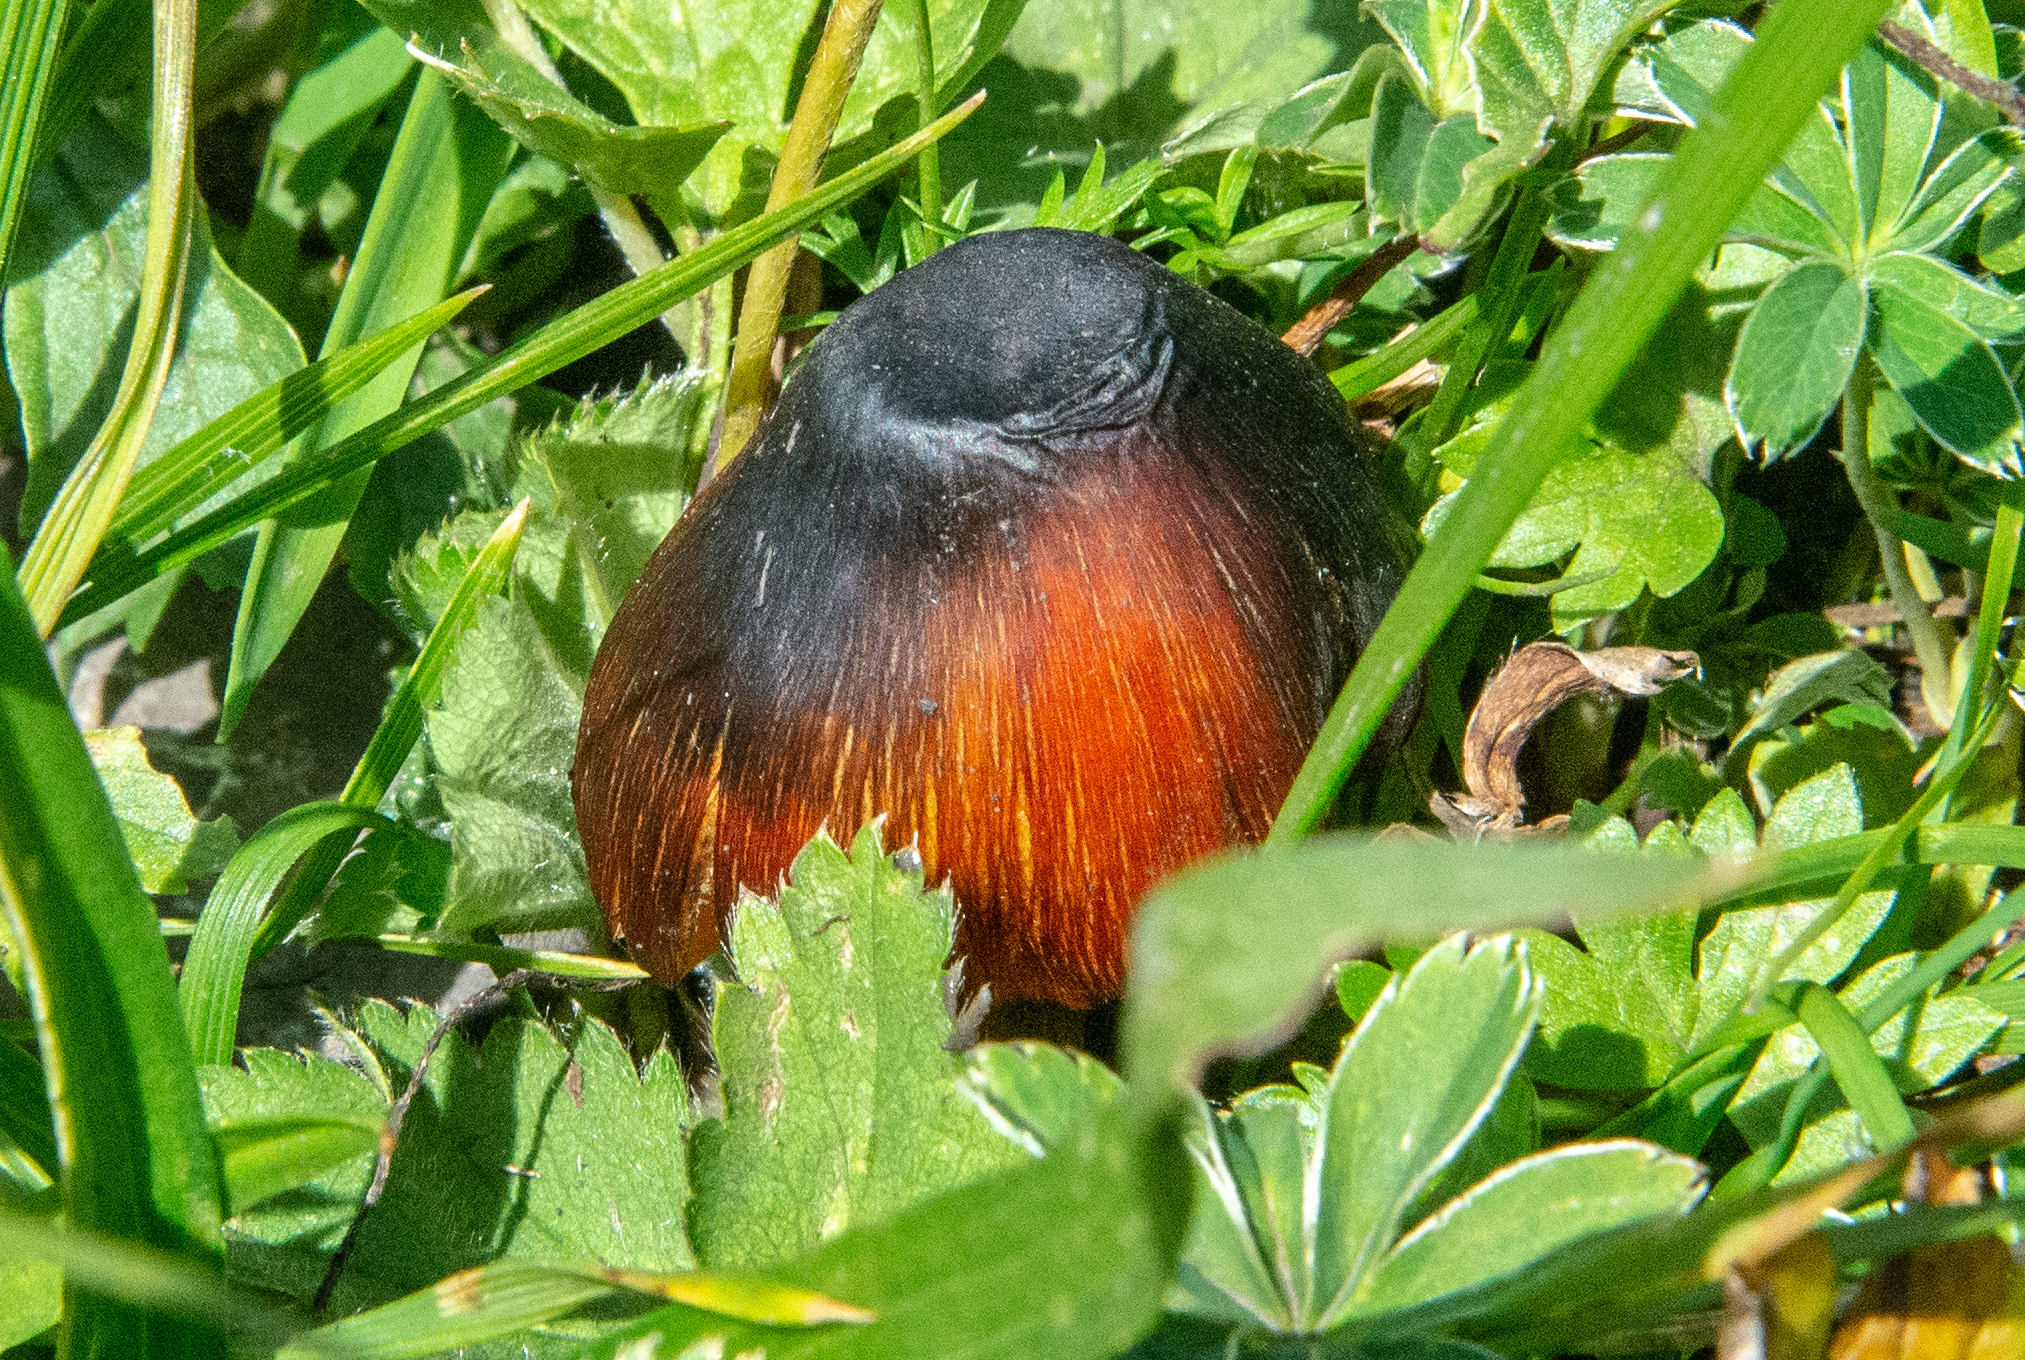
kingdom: Fungi
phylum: Basidiomycota
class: Agaricomycetes
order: Agaricales
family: Hygrophoraceae
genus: Hygrocybe
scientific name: Hygrocybe nigrescens
